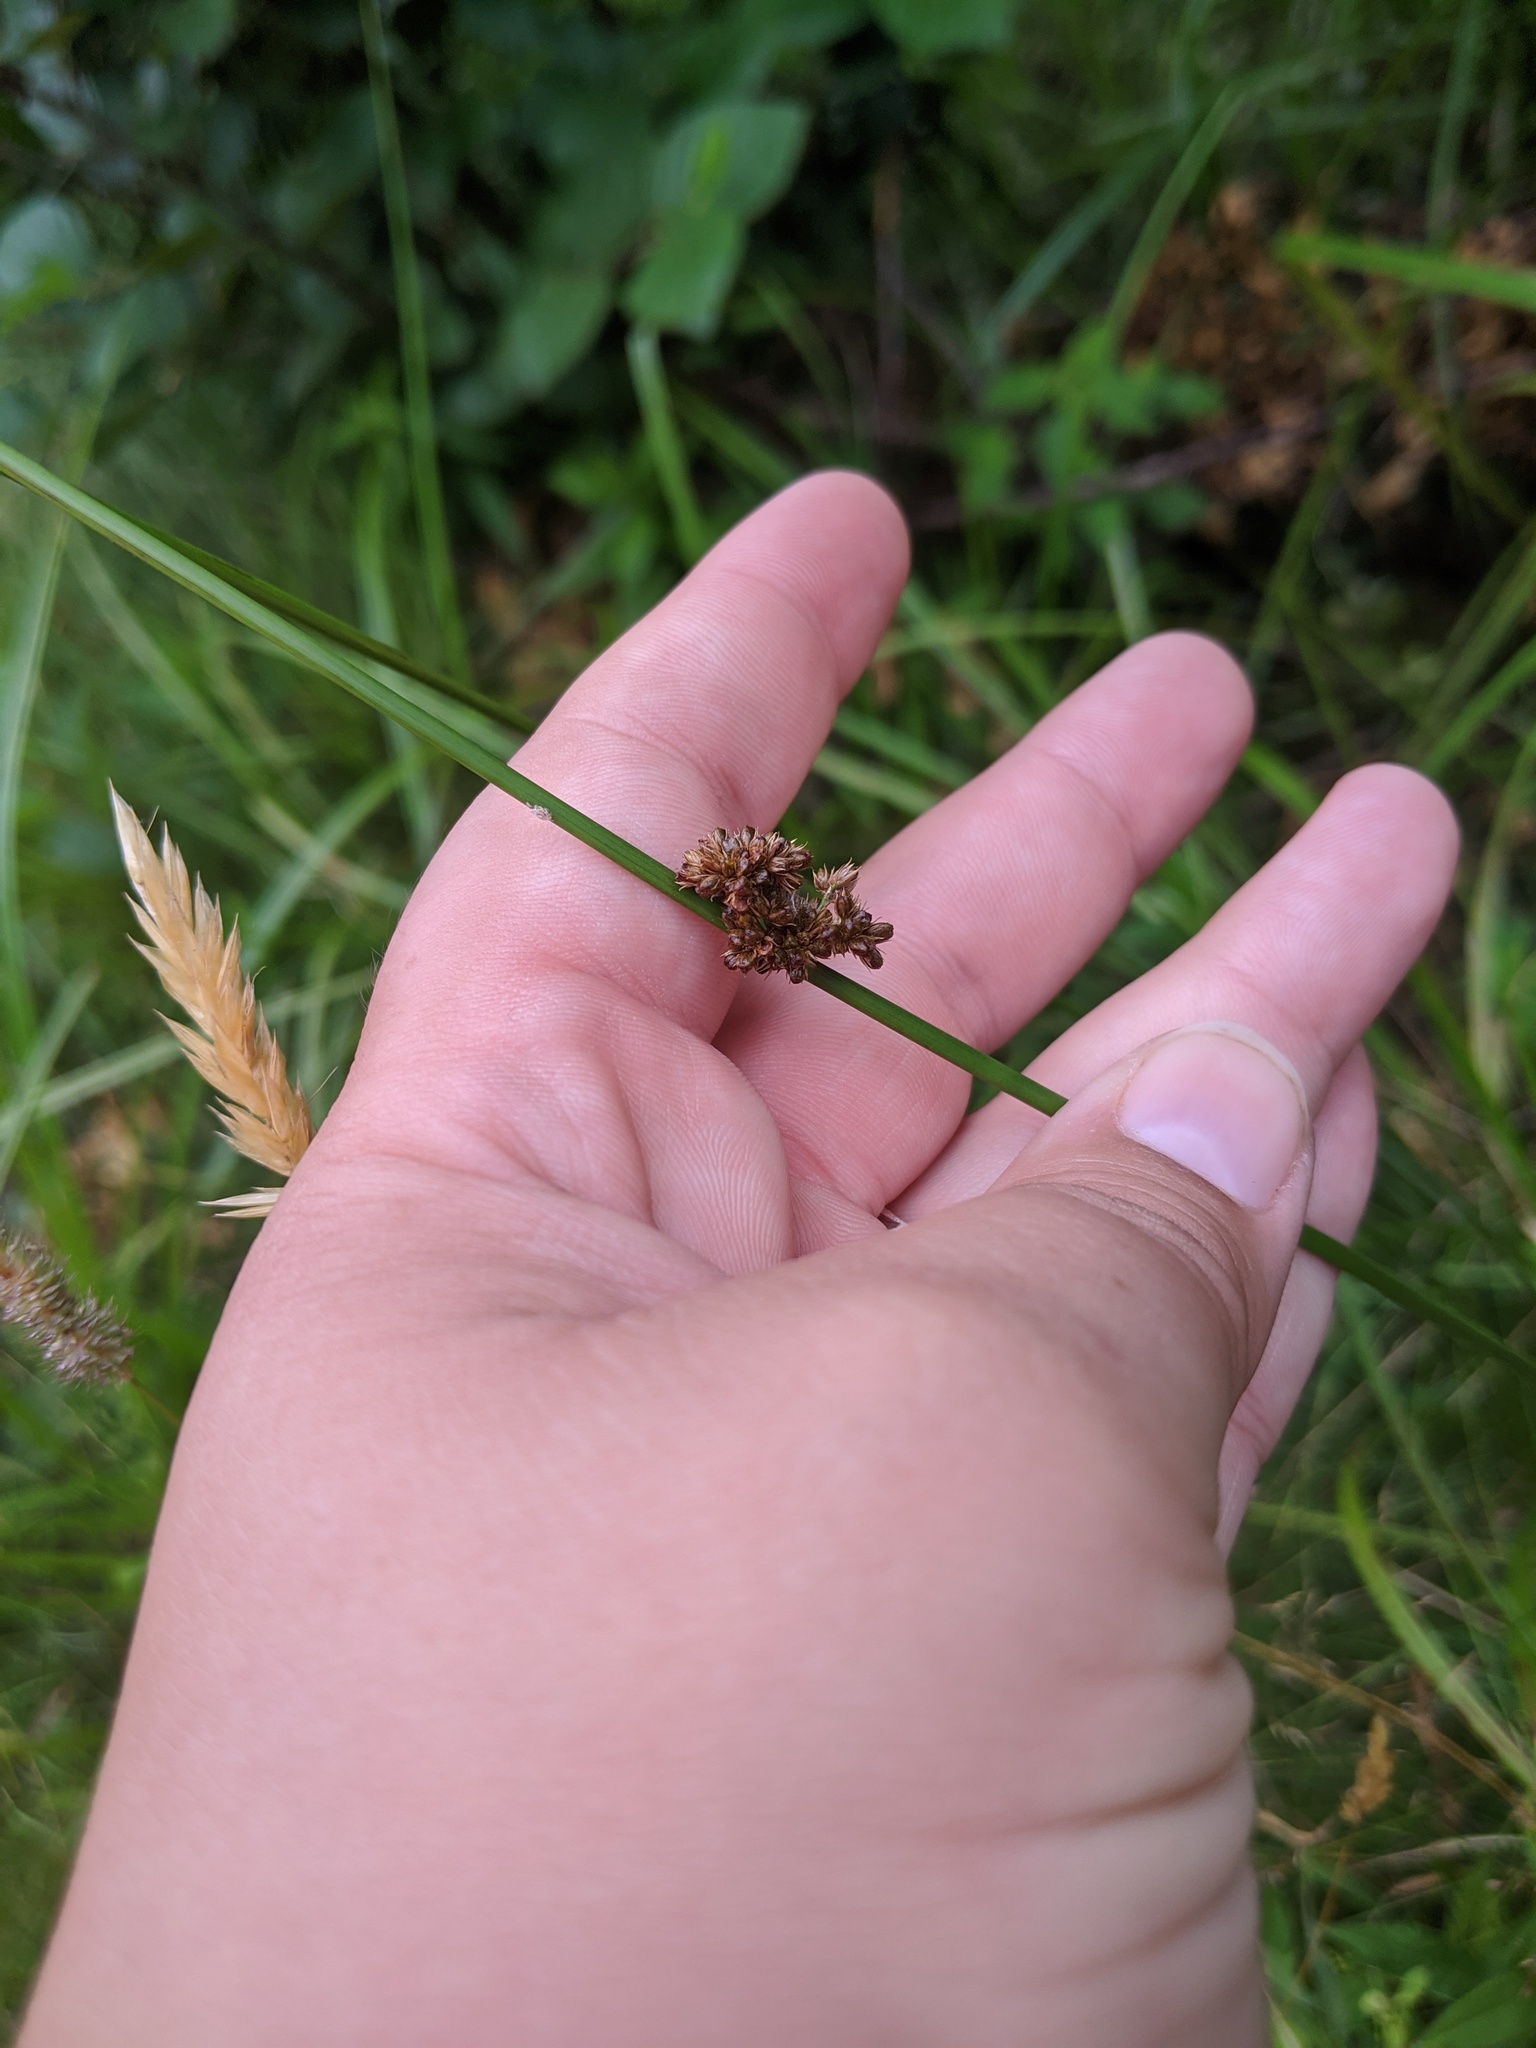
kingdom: Plantae
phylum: Tracheophyta
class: Liliopsida
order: Poales
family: Juncaceae
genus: Juncus
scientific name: Juncus effusus
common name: Soft rush
